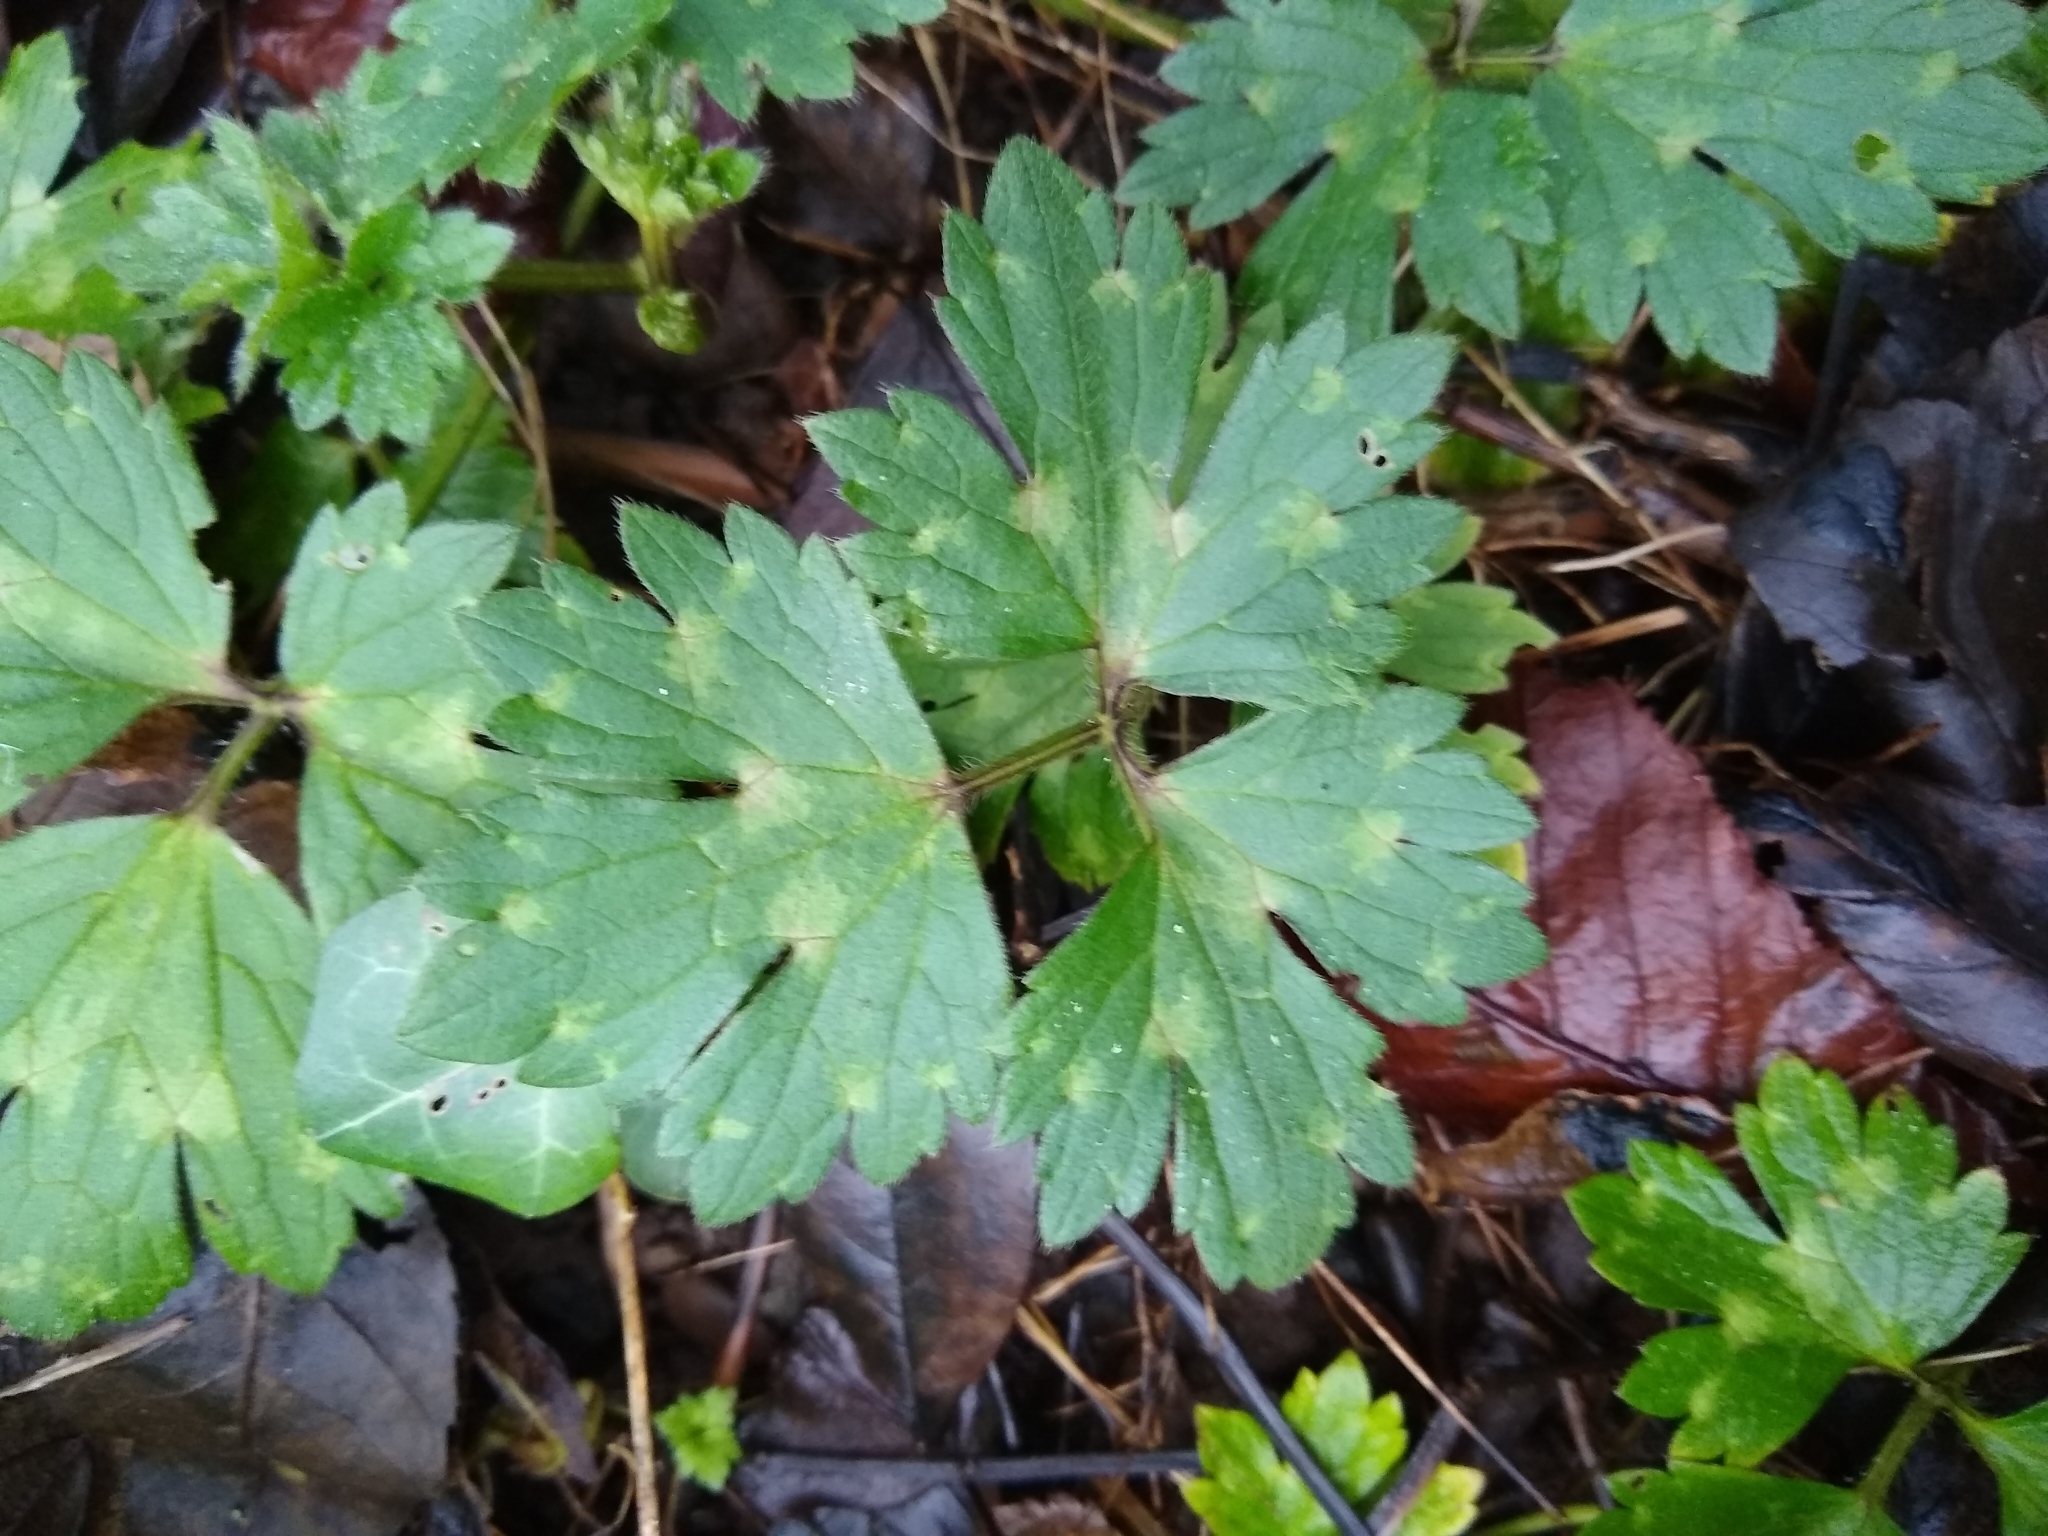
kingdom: Plantae
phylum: Tracheophyta
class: Magnoliopsida
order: Ranunculales
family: Ranunculaceae
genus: Ranunculus
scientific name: Ranunculus repens
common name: Creeping buttercup
